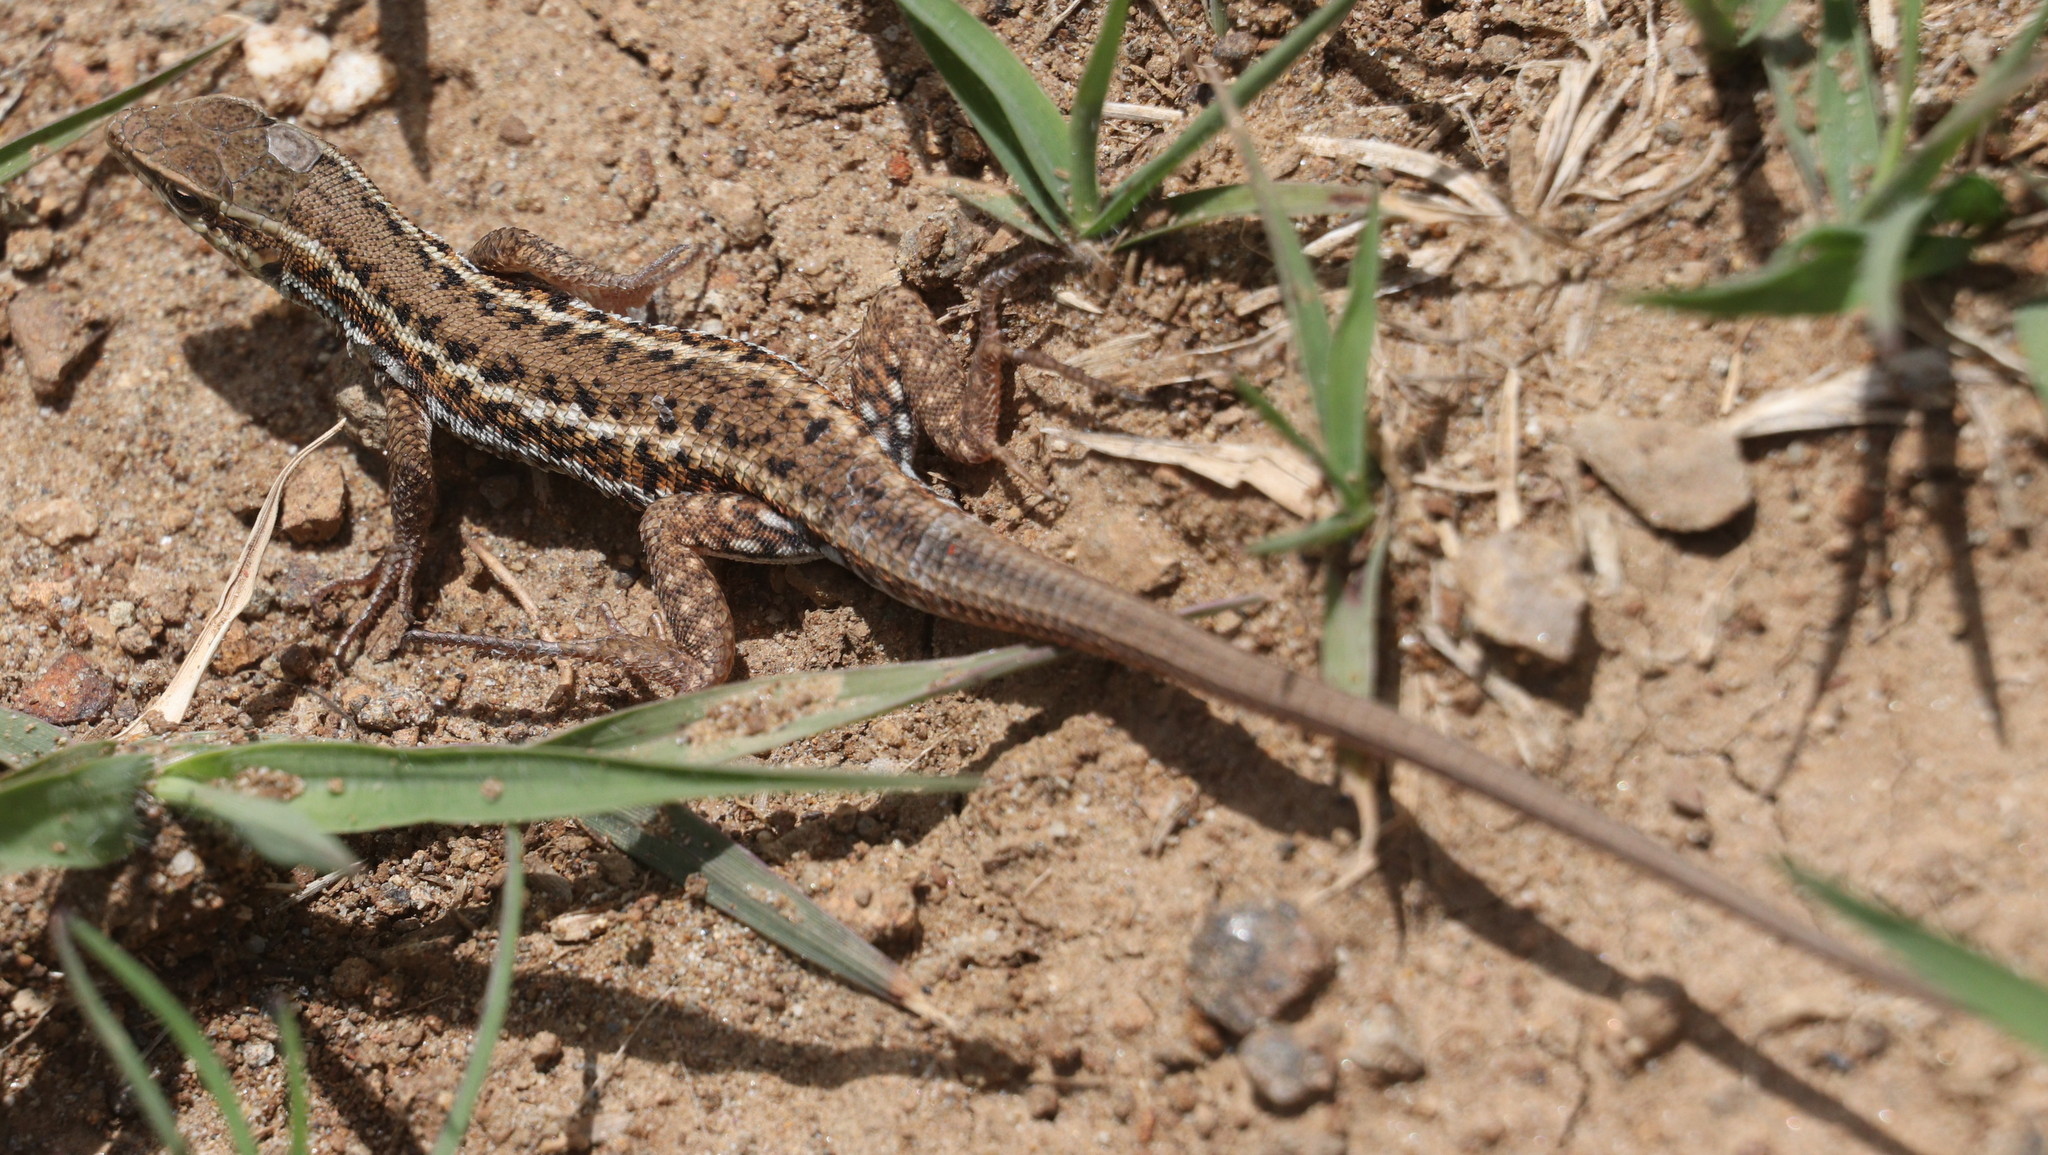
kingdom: Animalia
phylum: Chordata
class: Squamata
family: Lacertidae
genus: Ophisops
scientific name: Ophisops elegans
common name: Snake-eyed lizard
